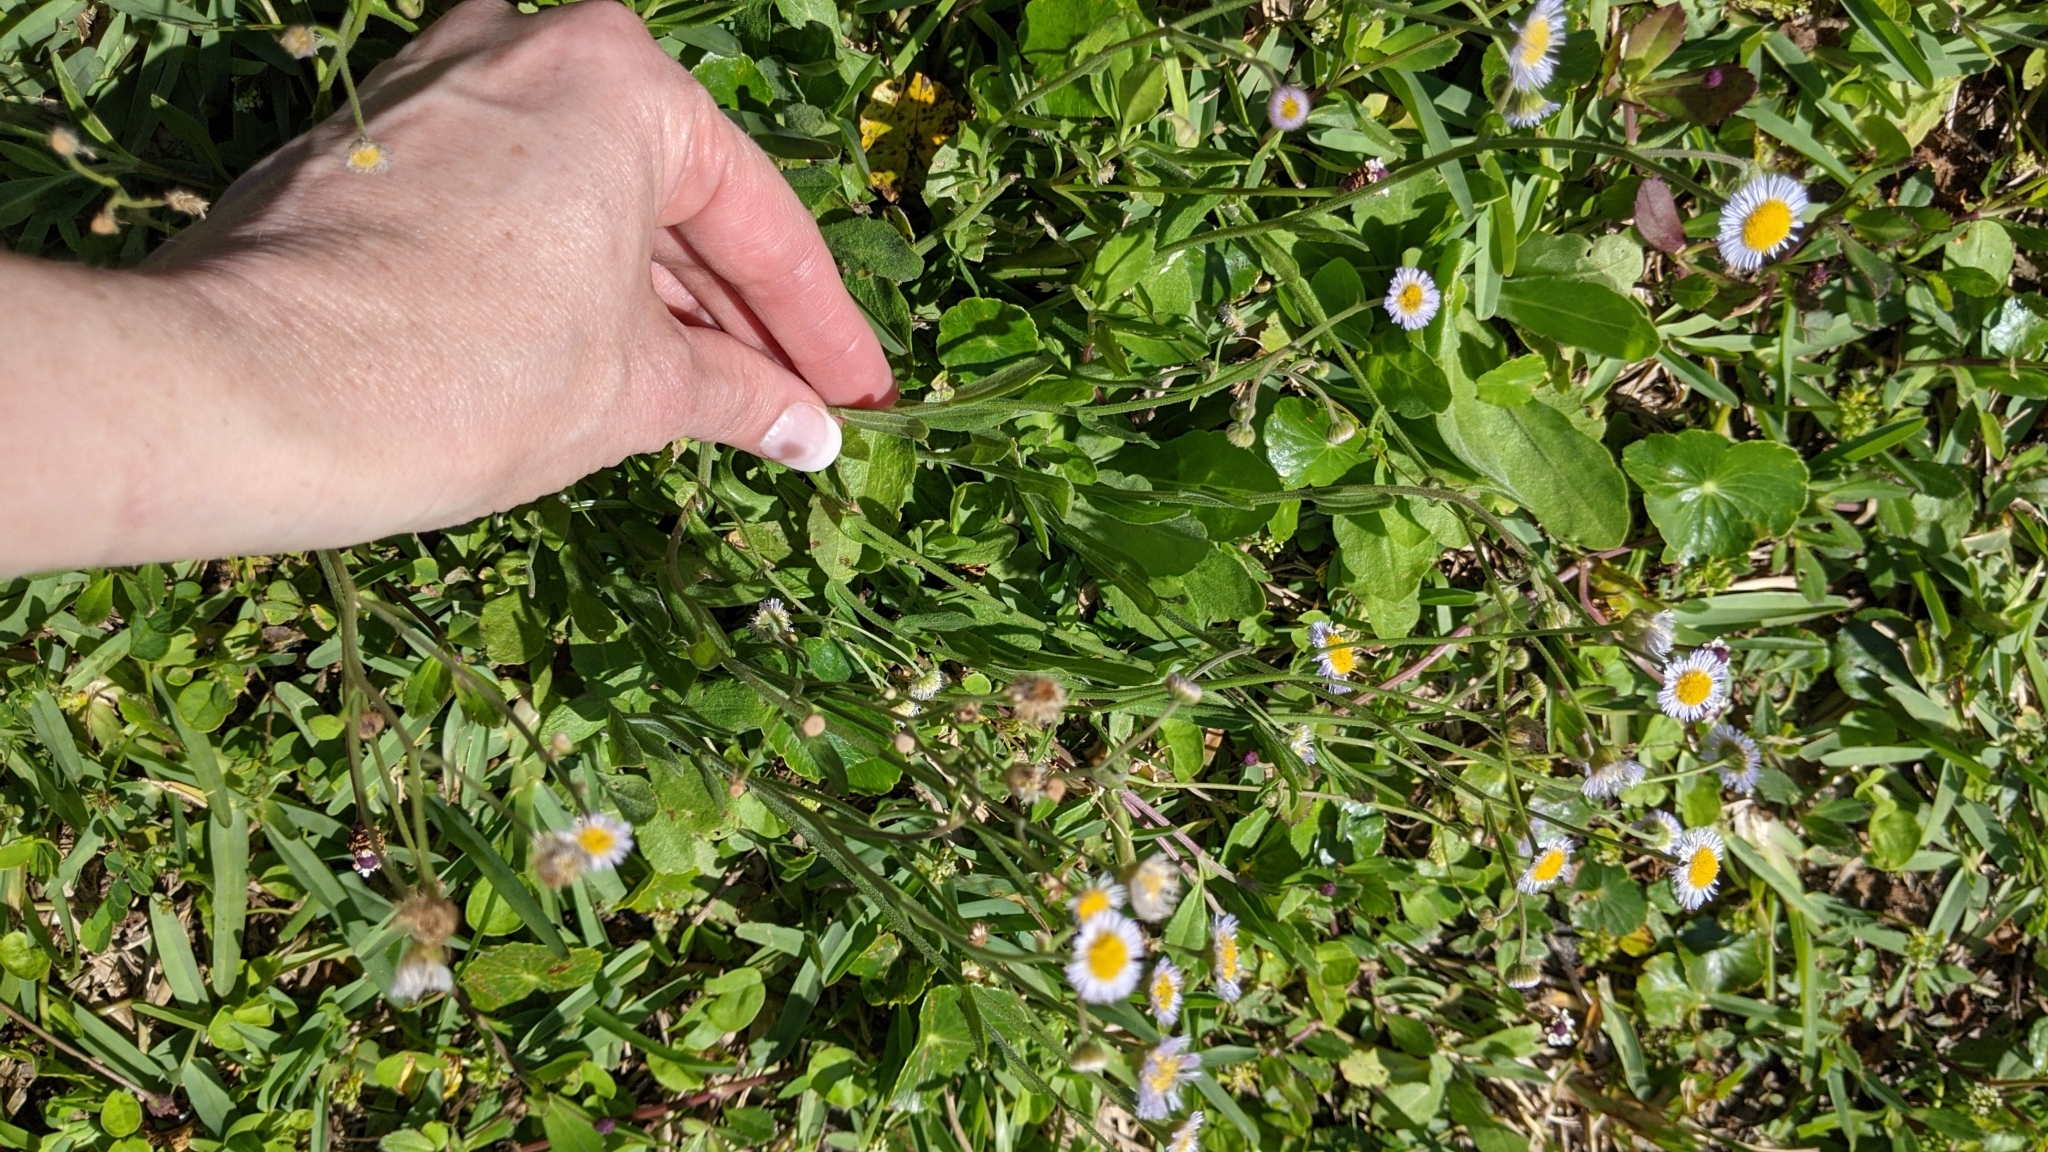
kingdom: Plantae
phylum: Tracheophyta
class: Magnoliopsida
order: Asterales
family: Asteraceae
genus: Erigeron
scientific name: Erigeron quercifolius
